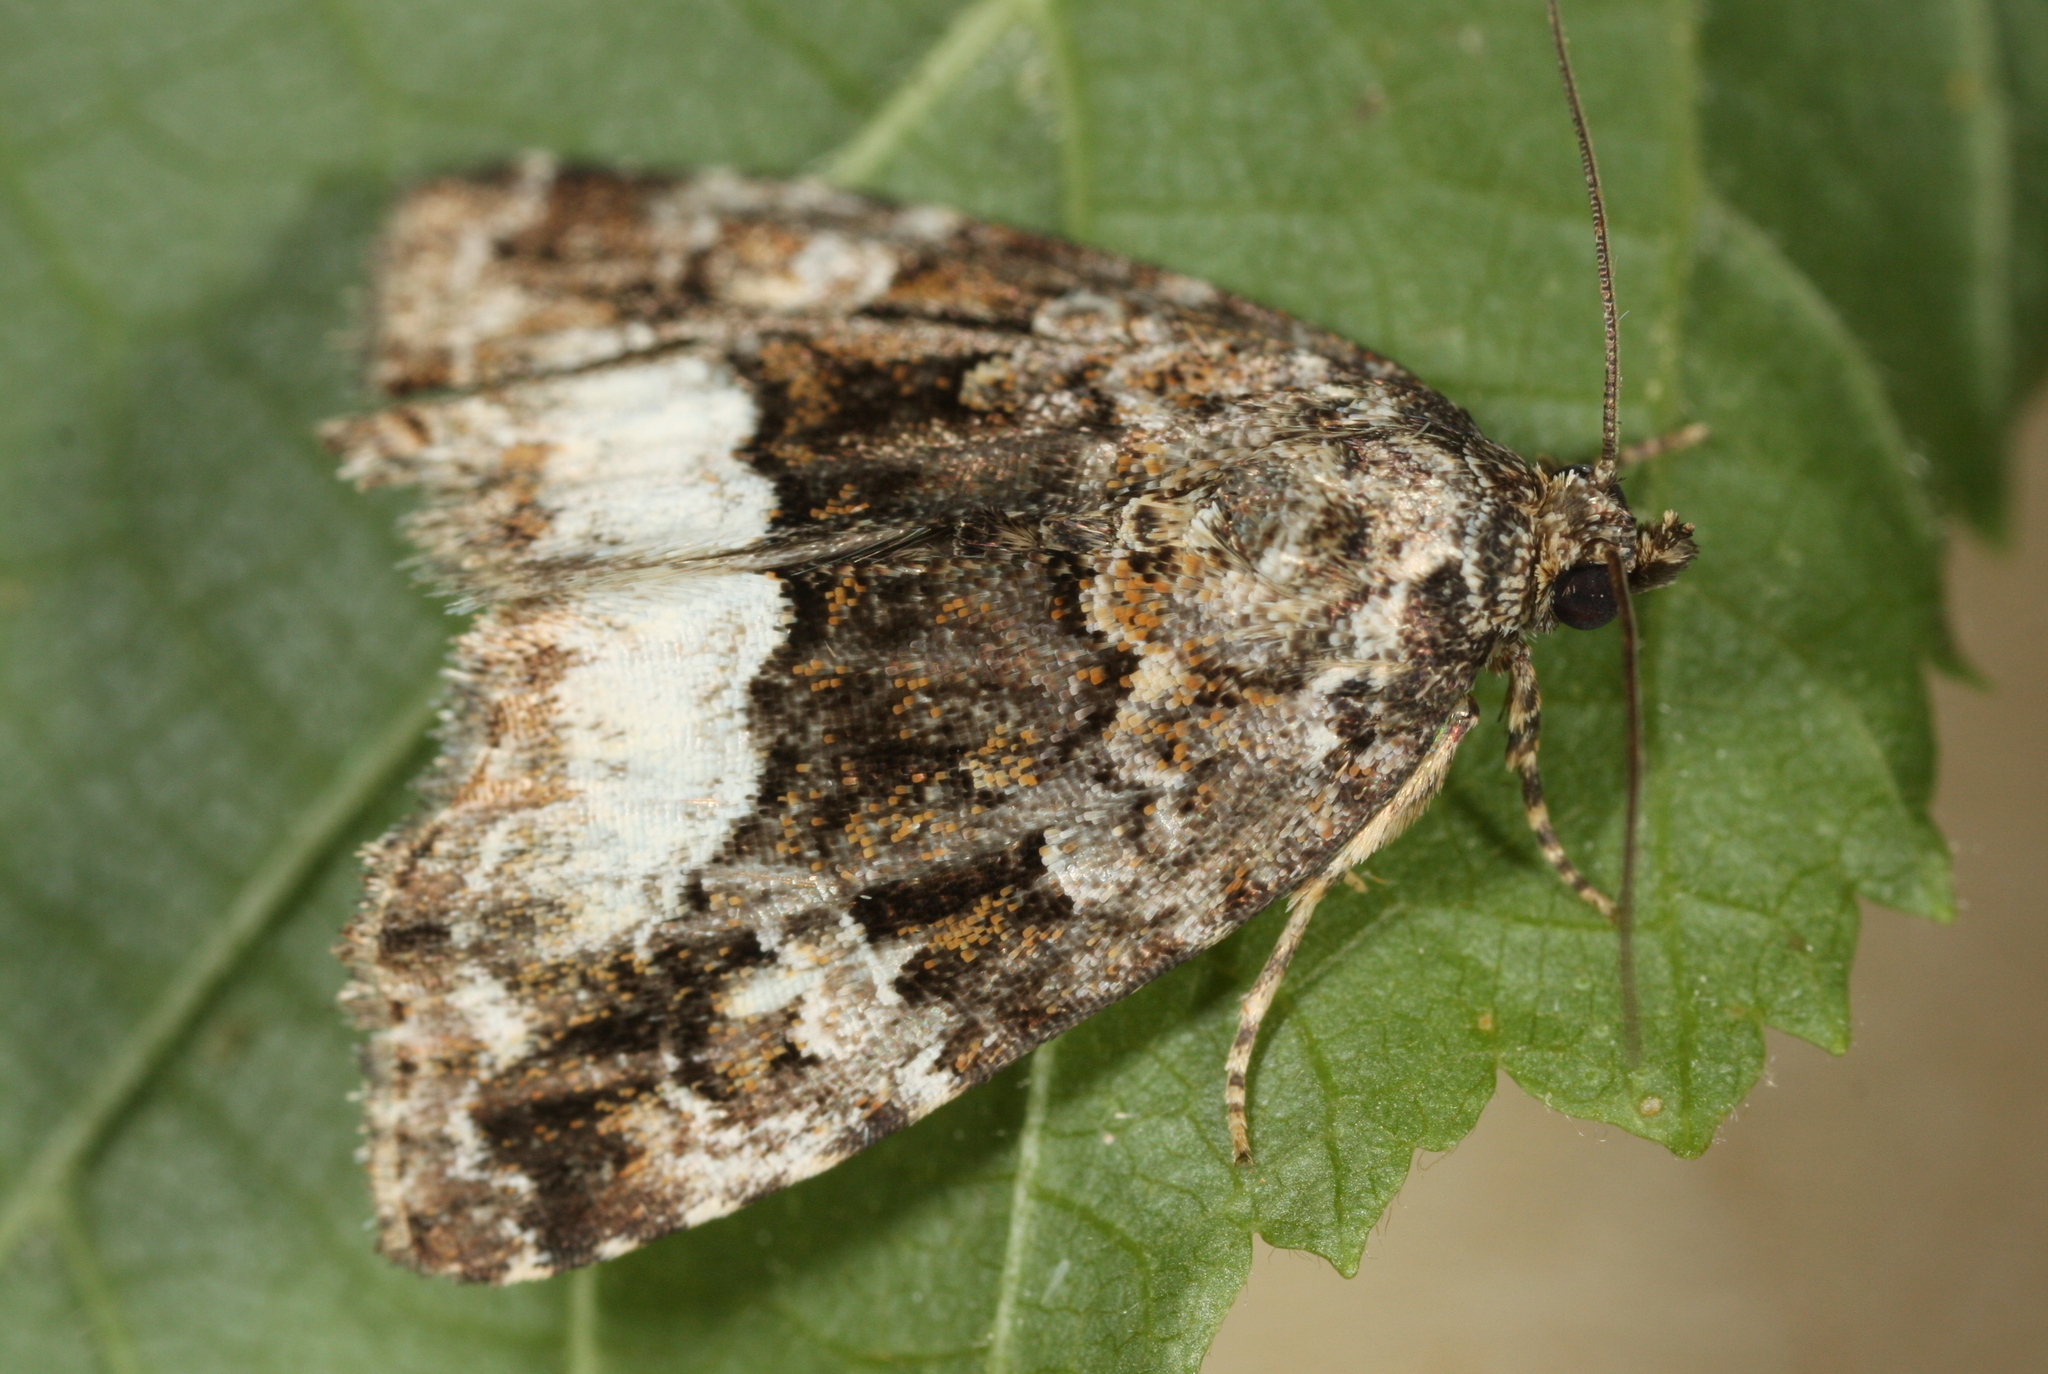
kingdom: Animalia
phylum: Arthropoda
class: Insecta
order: Lepidoptera
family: Noctuidae
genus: Deltote
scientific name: Deltote pygarga
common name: Marbled white spot
